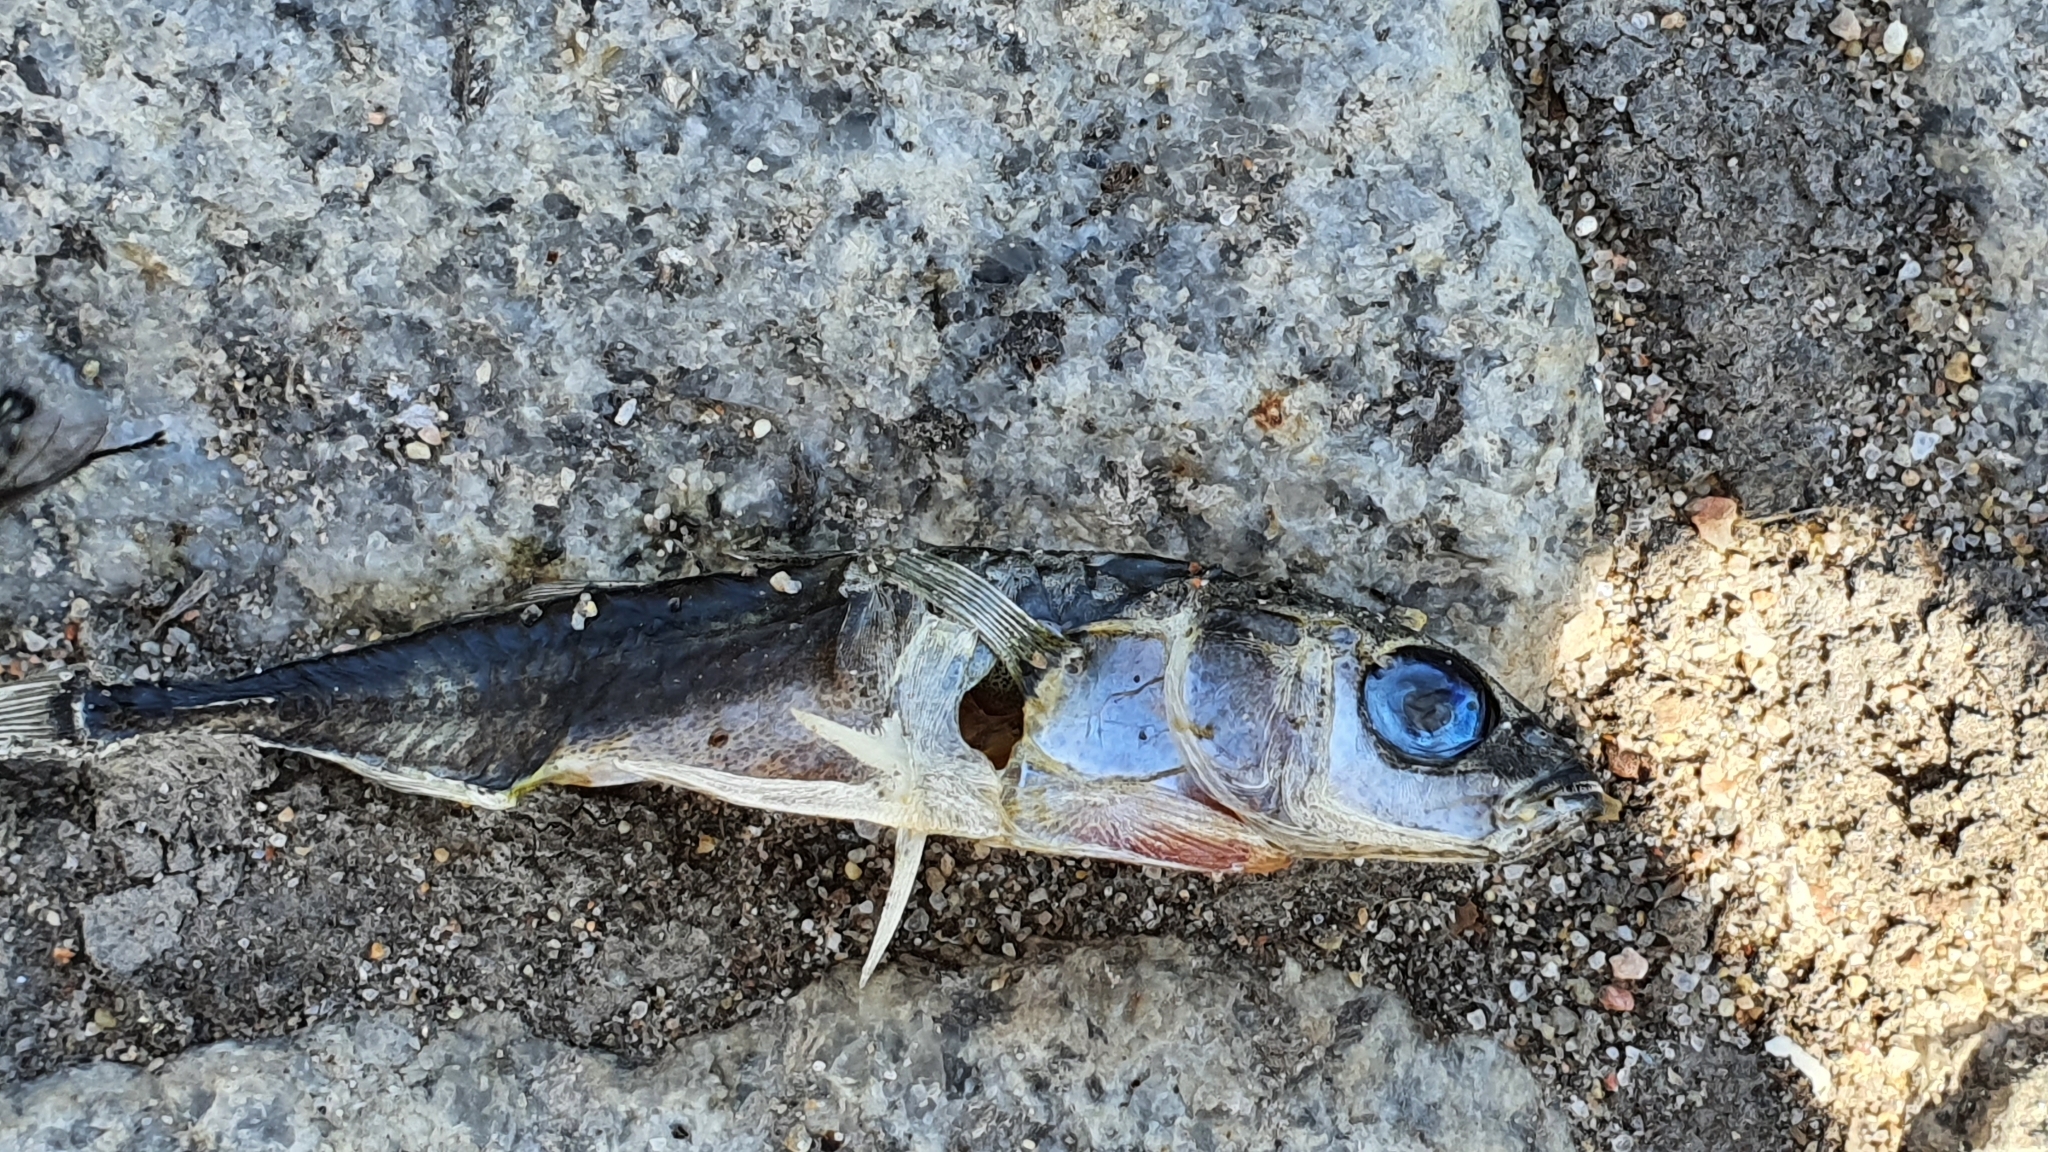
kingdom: Animalia
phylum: Chordata
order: Gasterosteiformes
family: Gasterosteidae
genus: Gasterosteus
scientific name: Gasterosteus aculeatus
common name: Three-spined stickleback
